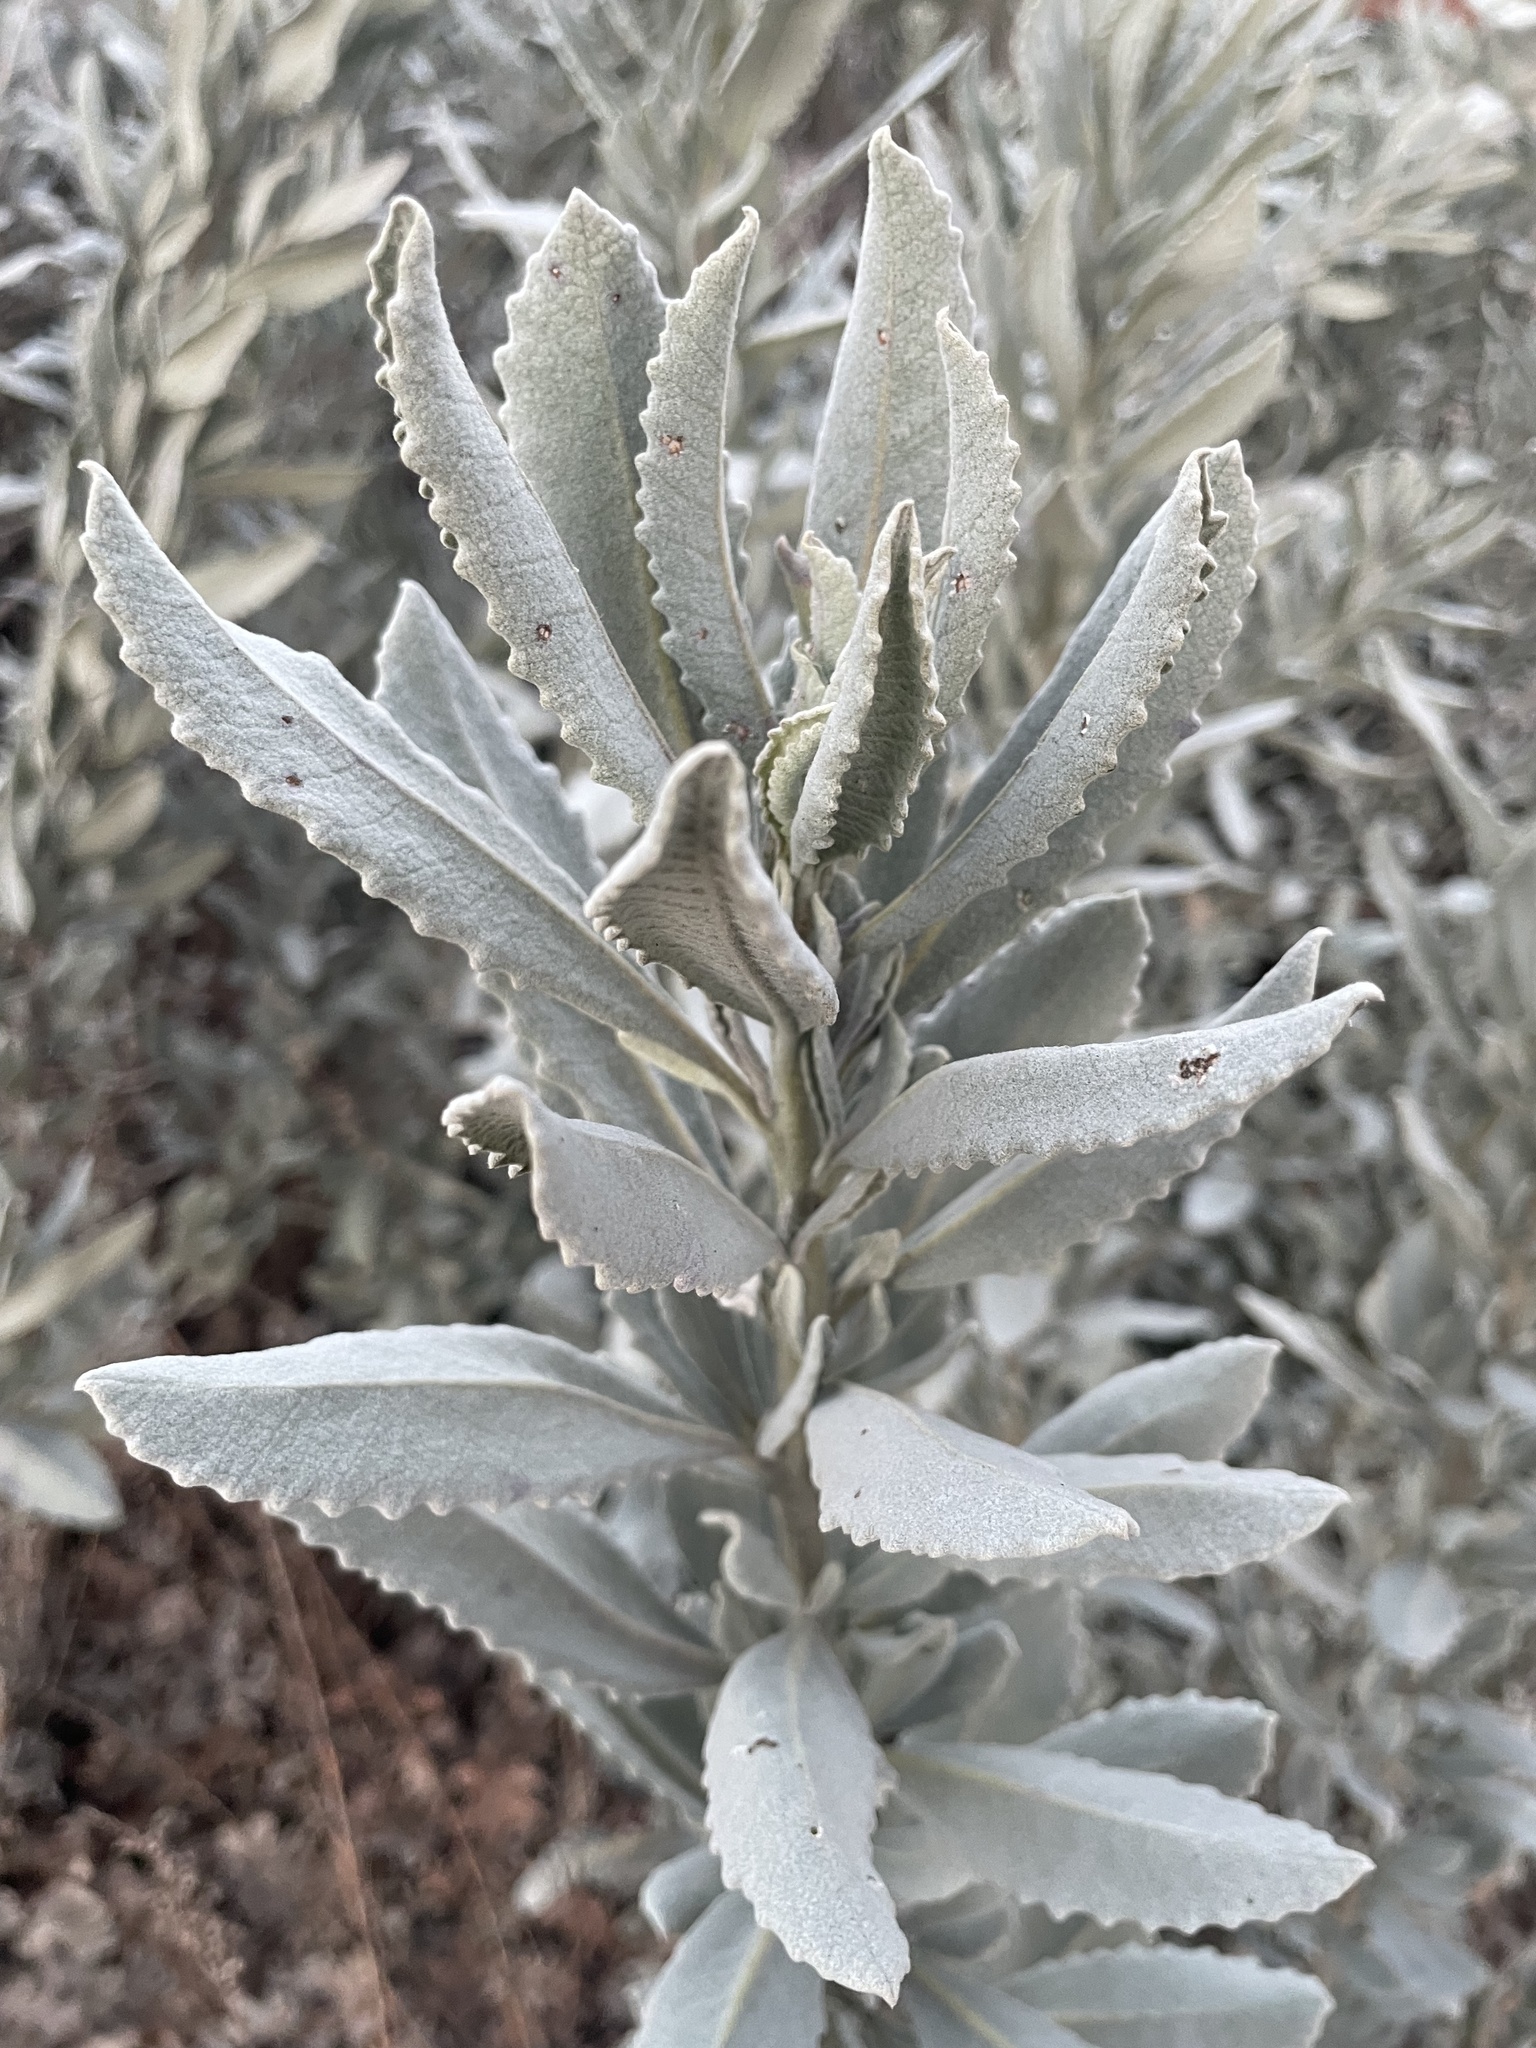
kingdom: Plantae
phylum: Tracheophyta
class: Magnoliopsida
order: Boraginales
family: Namaceae
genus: Eriodictyon
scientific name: Eriodictyon tomentosum
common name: Woolly yerba-santa
